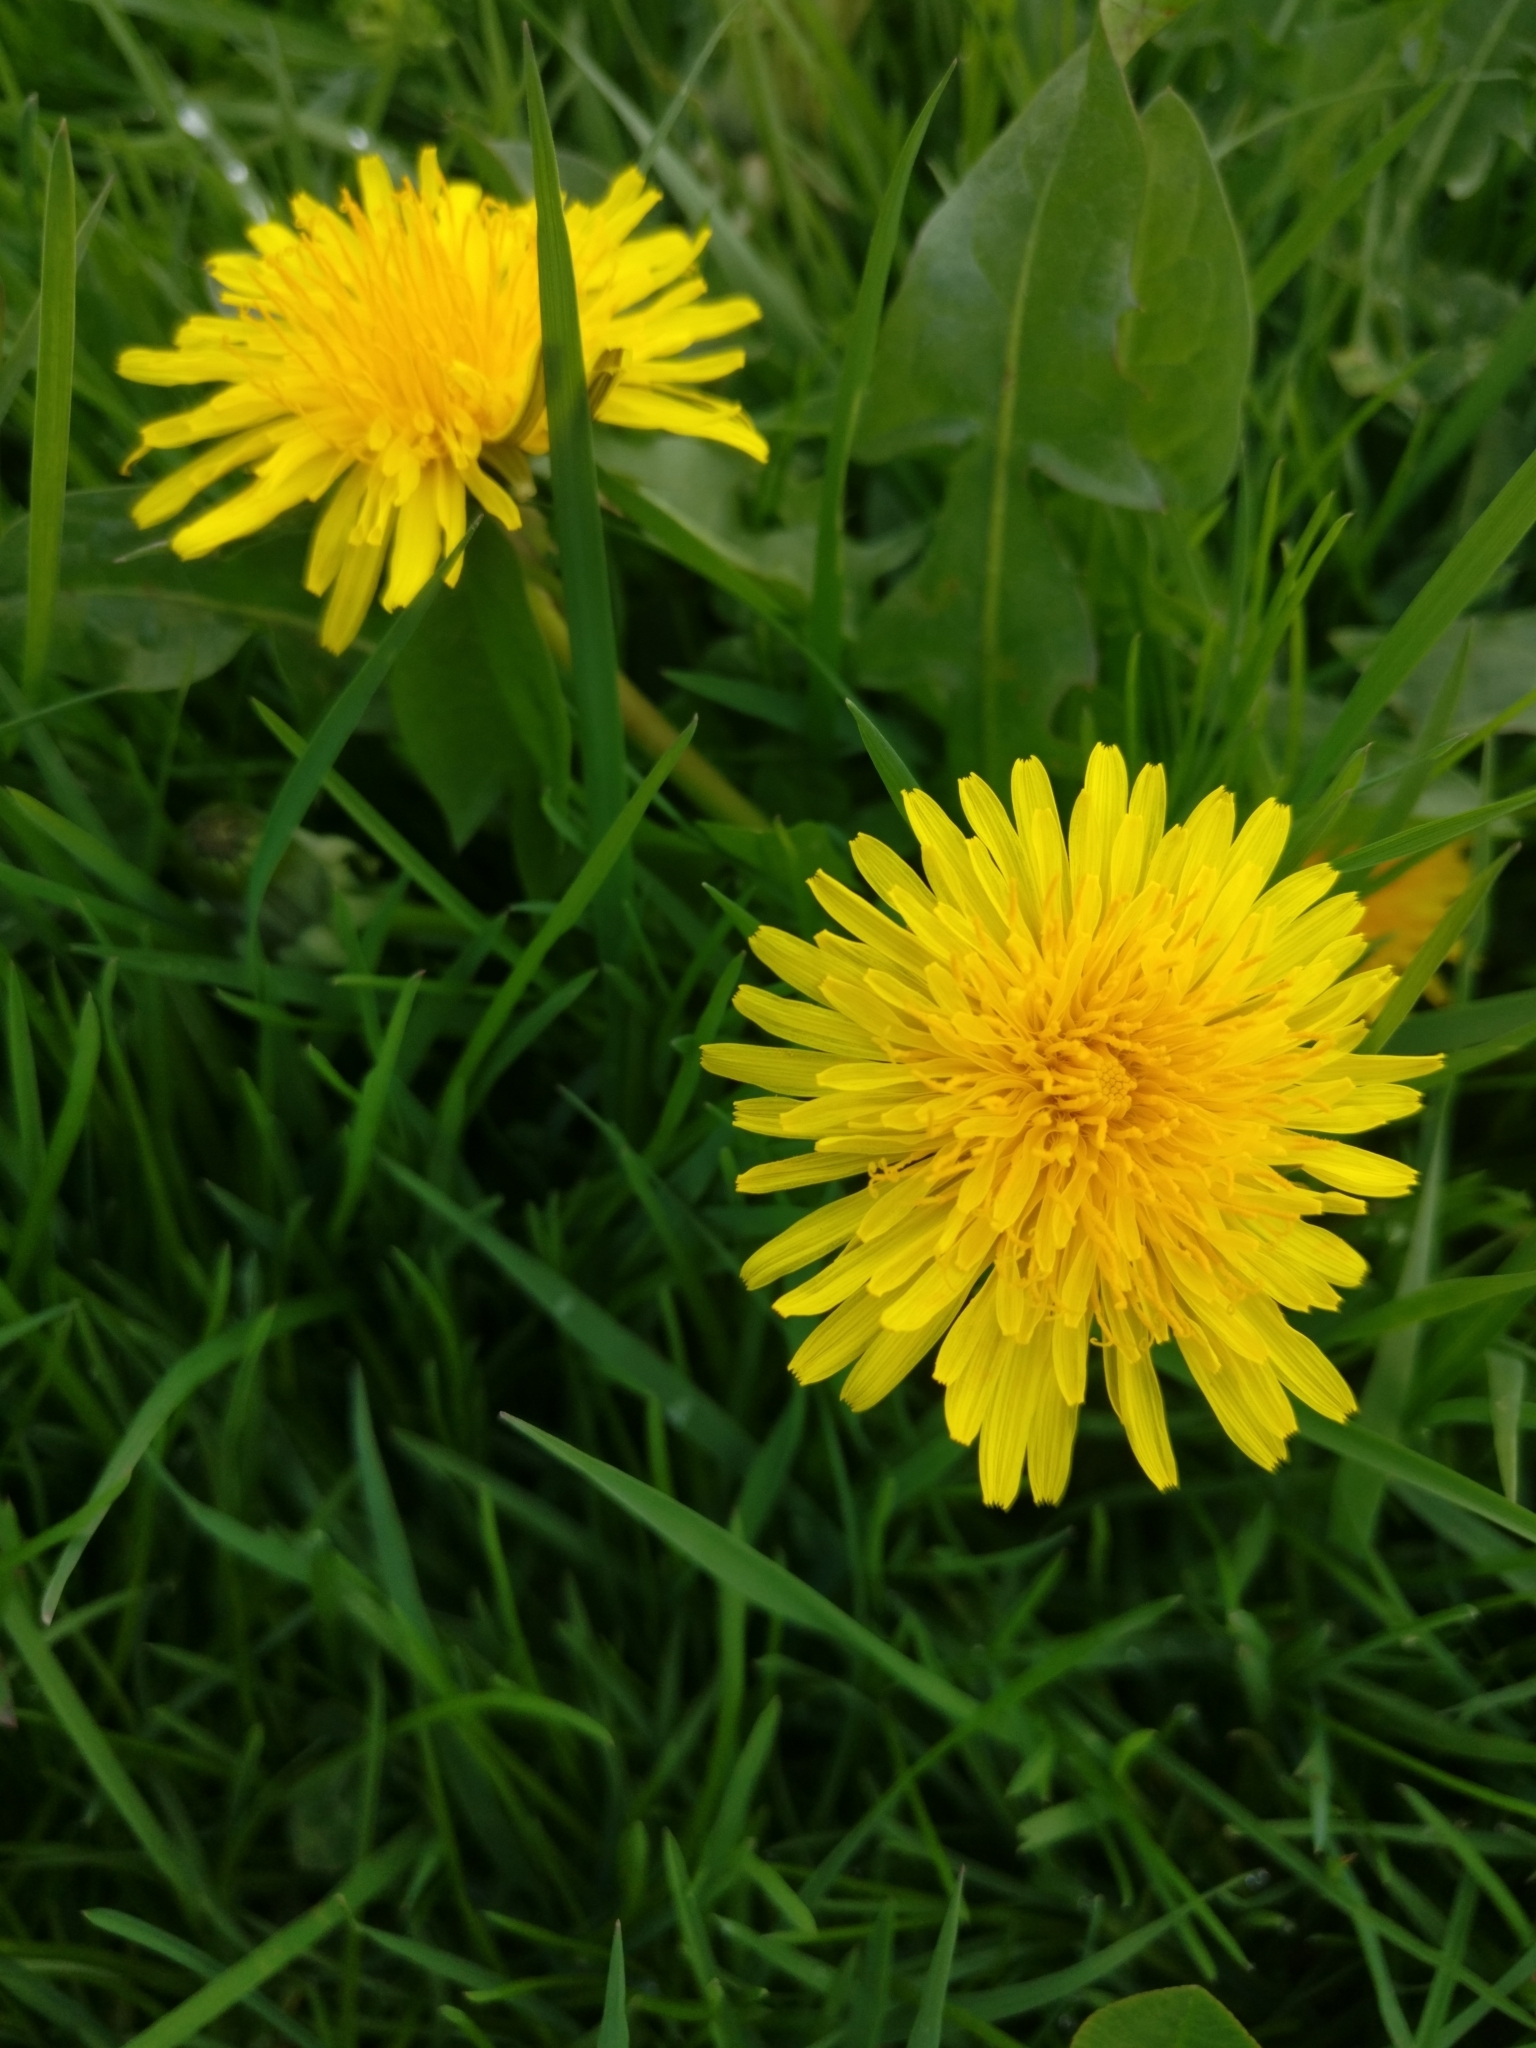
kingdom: Plantae
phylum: Tracheophyta
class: Magnoliopsida
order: Asterales
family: Asteraceae
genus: Taraxacum
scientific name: Taraxacum officinale
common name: Common dandelion
